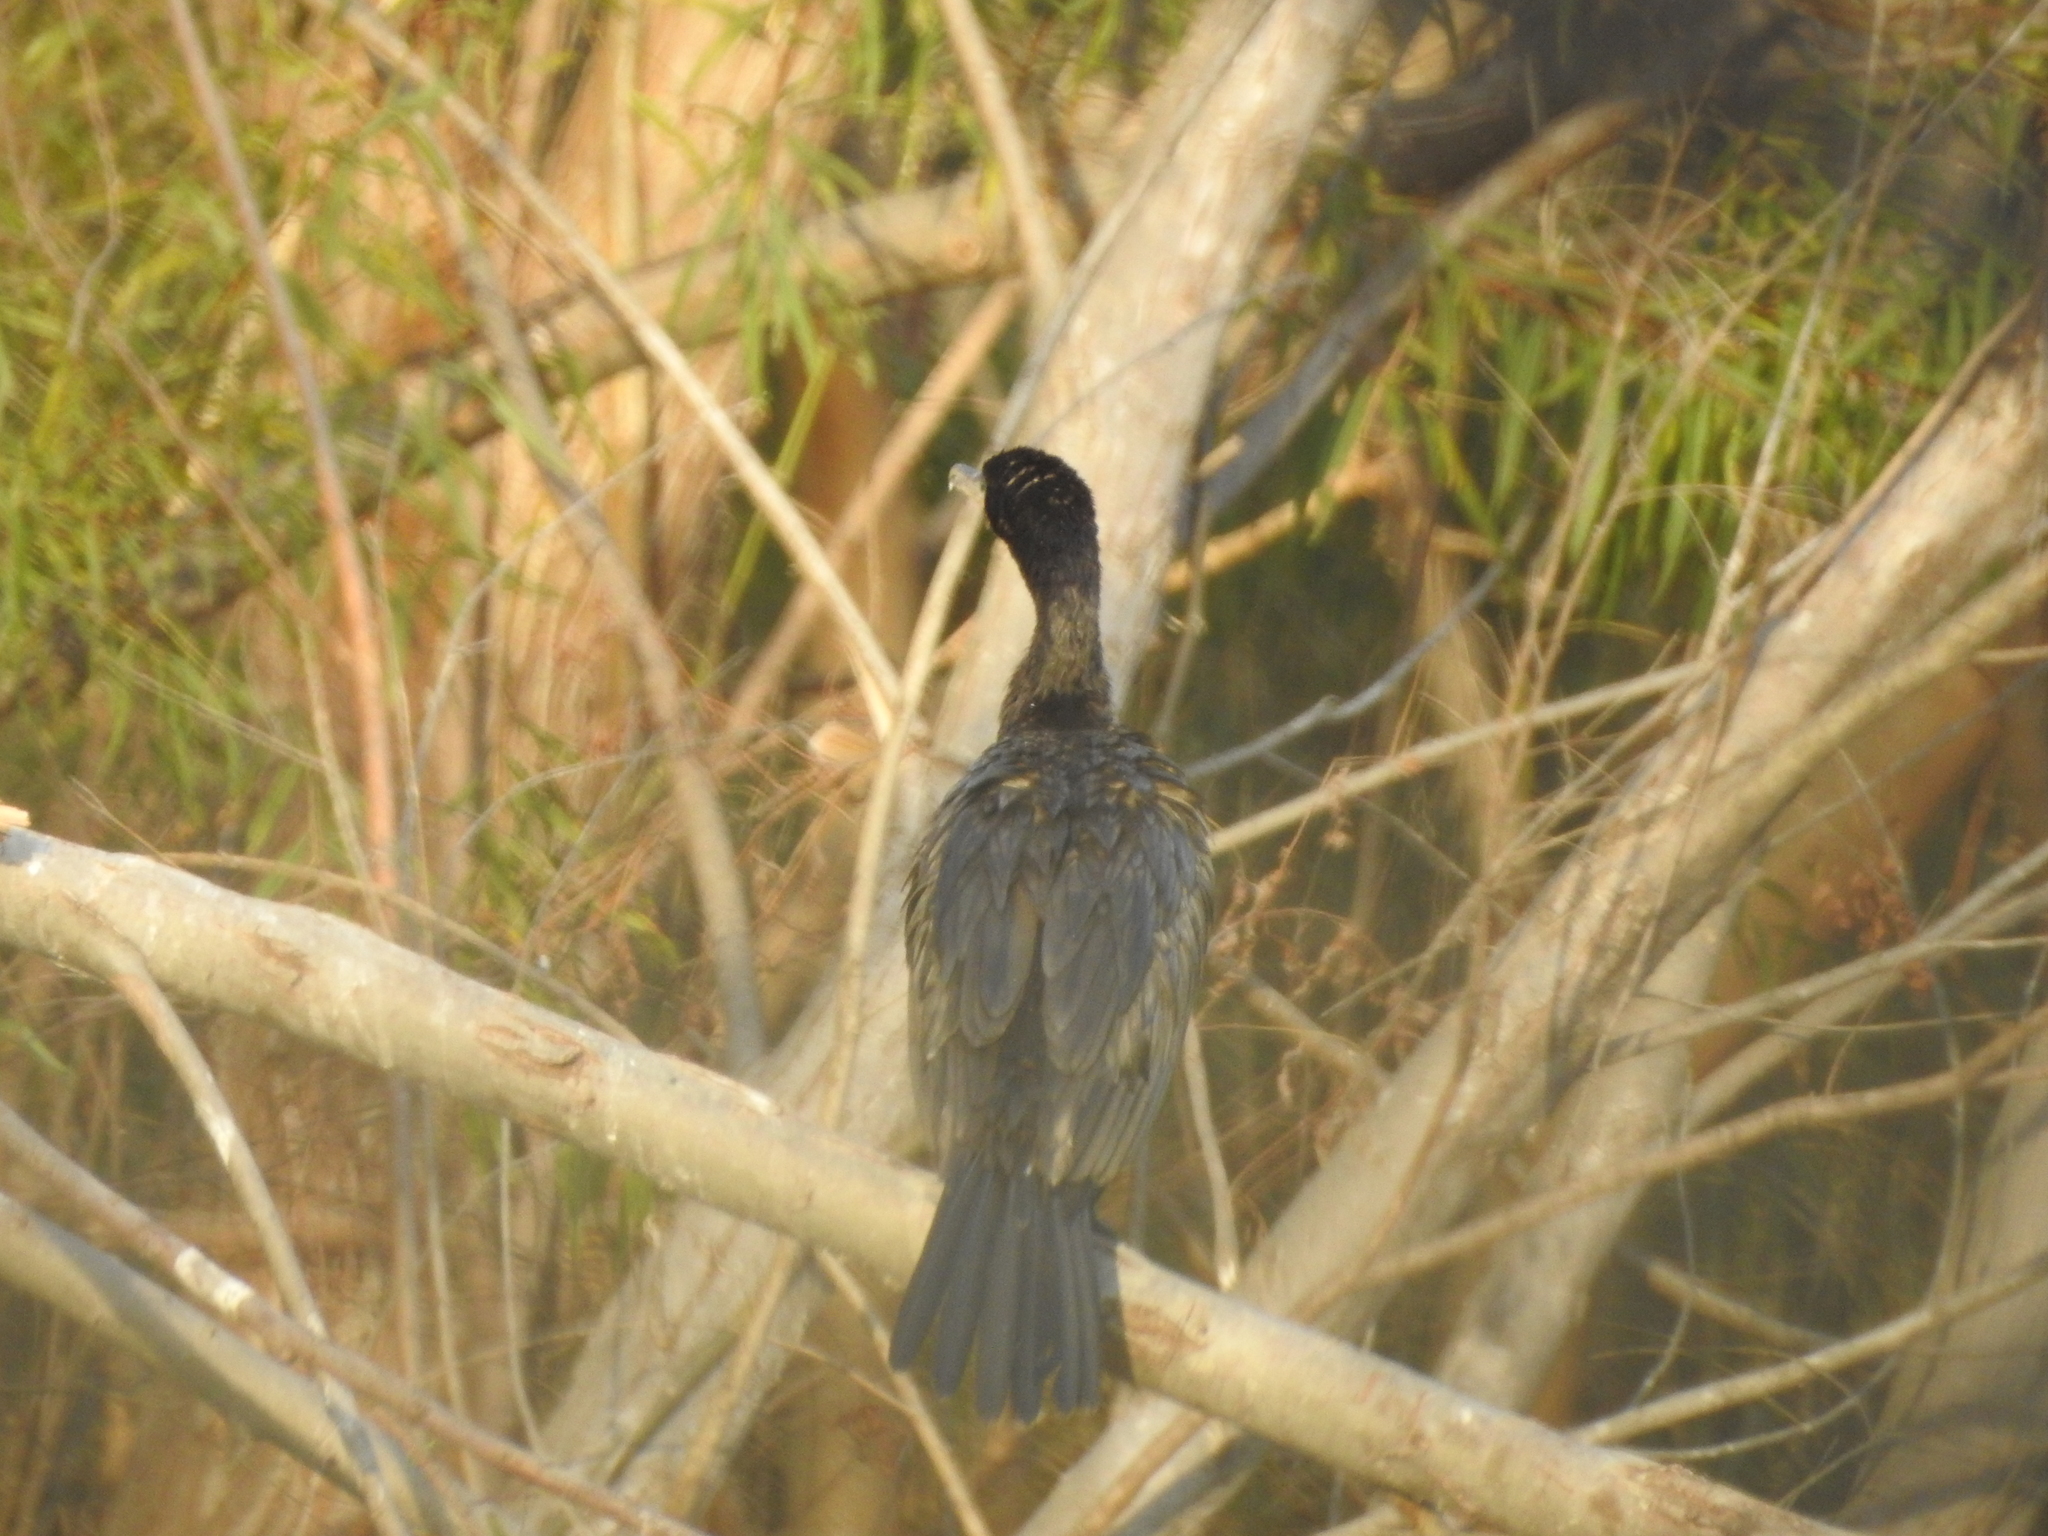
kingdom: Animalia
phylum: Chordata
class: Aves
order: Suliformes
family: Phalacrocoracidae
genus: Phalacrocorax
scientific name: Phalacrocorax brasilianus
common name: Neotropic cormorant
